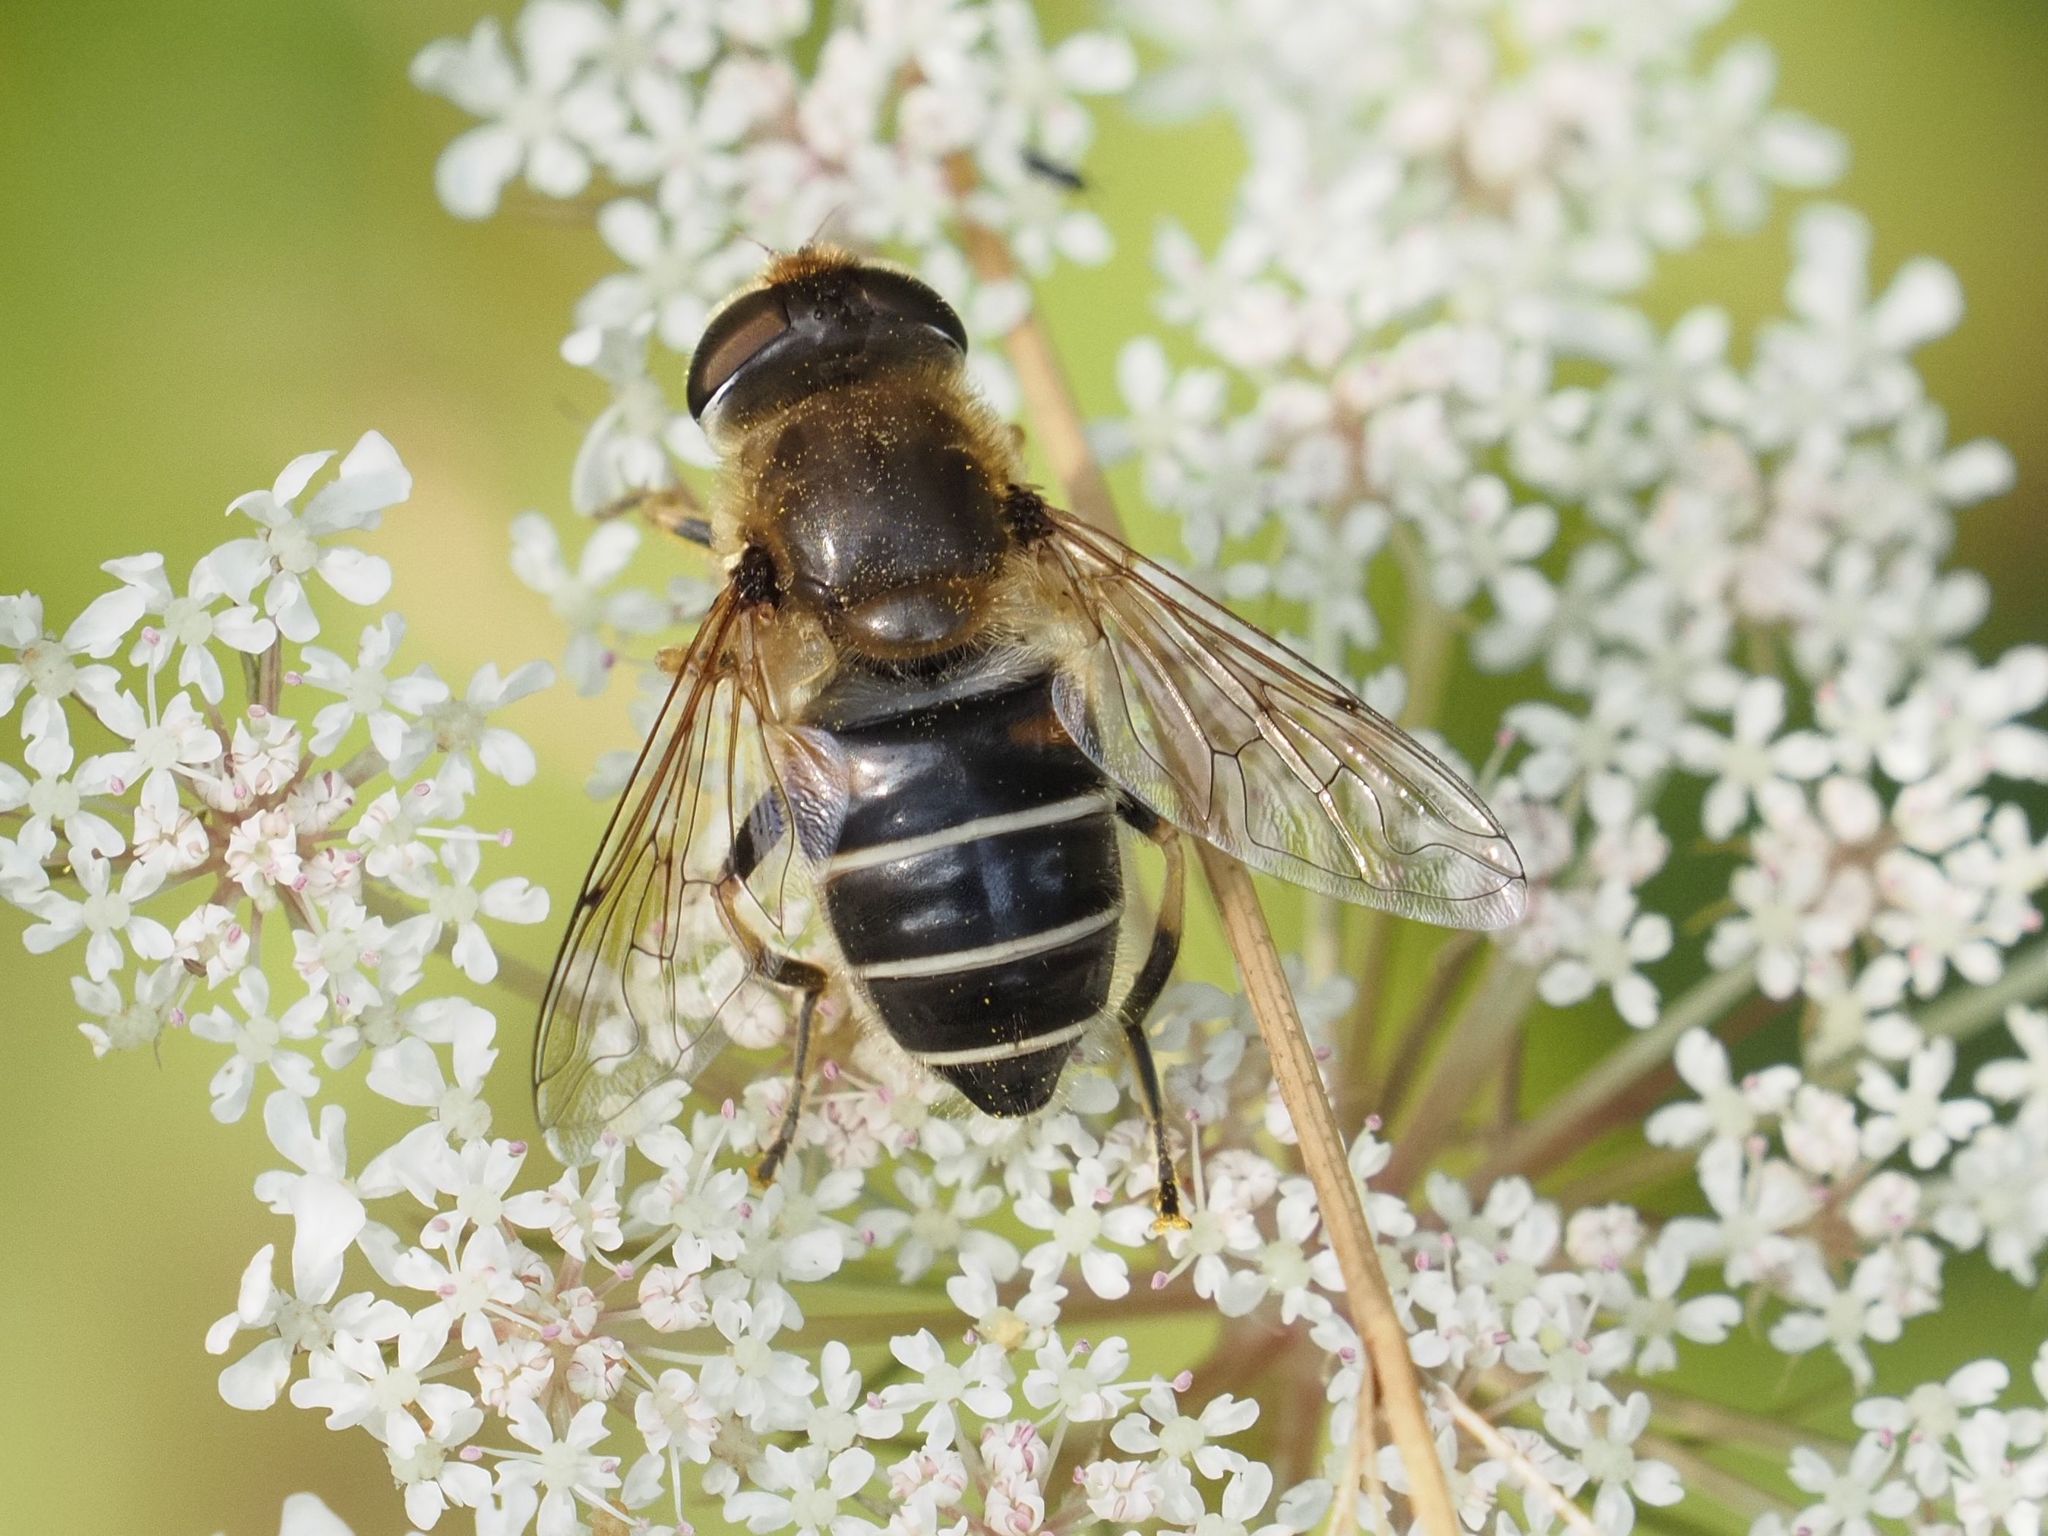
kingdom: Animalia
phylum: Arthropoda
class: Insecta
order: Diptera
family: Syrphidae
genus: Eristalis
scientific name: Eristalis nemorum
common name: Orange-spined drone fly
